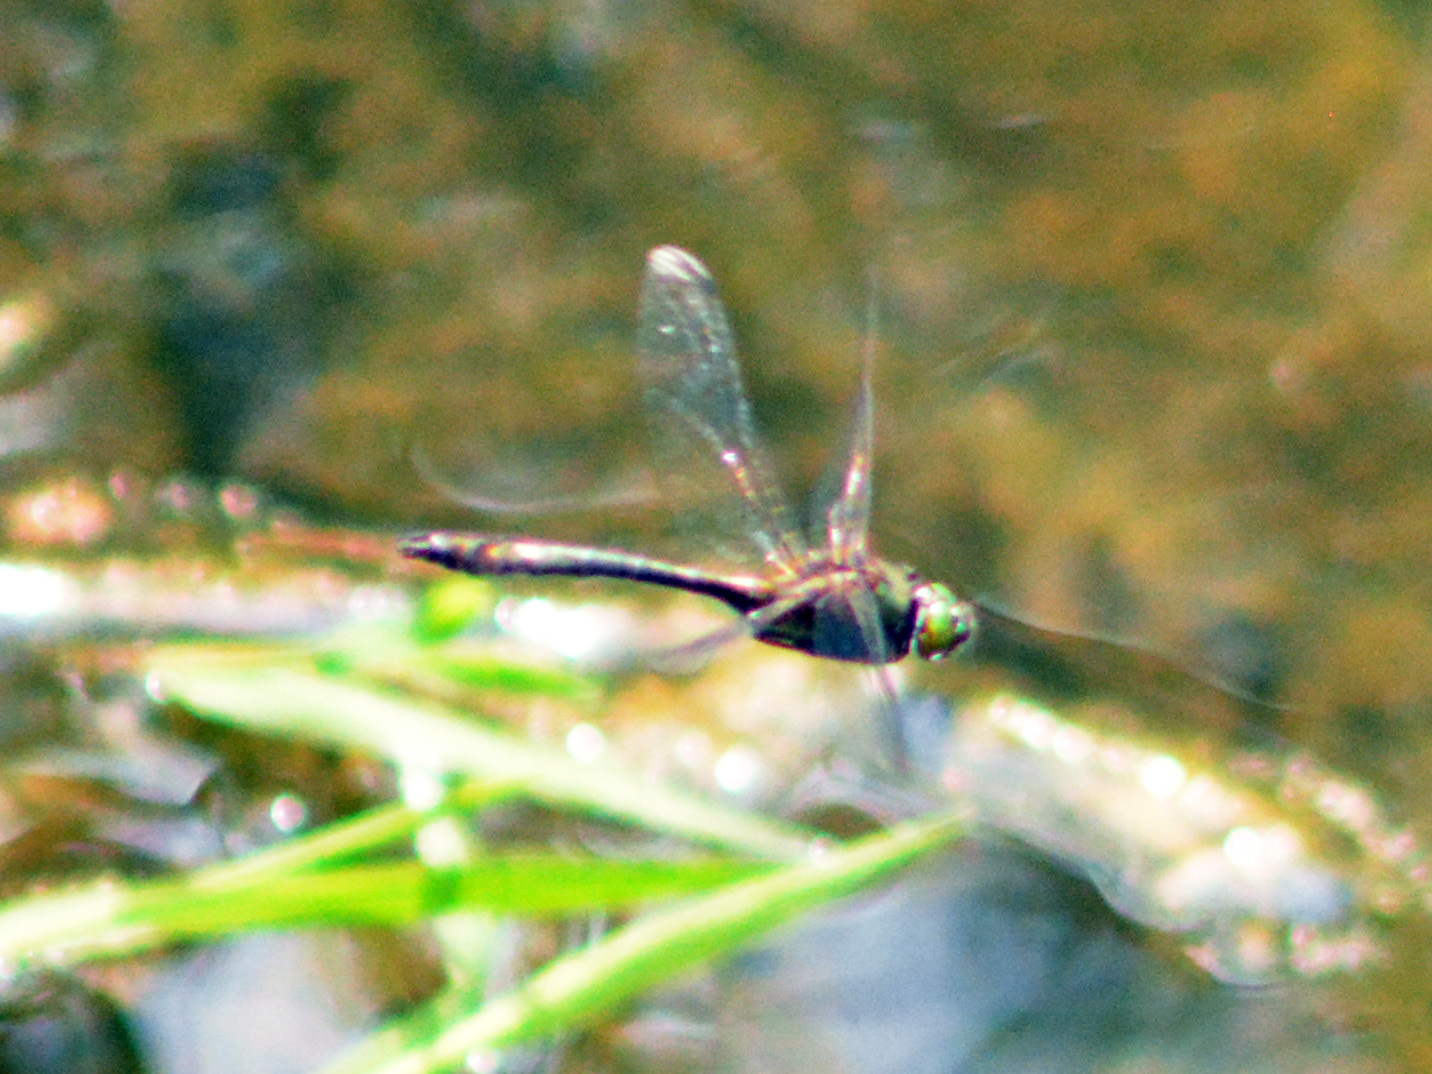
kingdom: Animalia
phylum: Arthropoda
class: Insecta
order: Odonata
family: Corduliidae
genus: Cordulia
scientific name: Cordulia aenea
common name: Downy emerald
